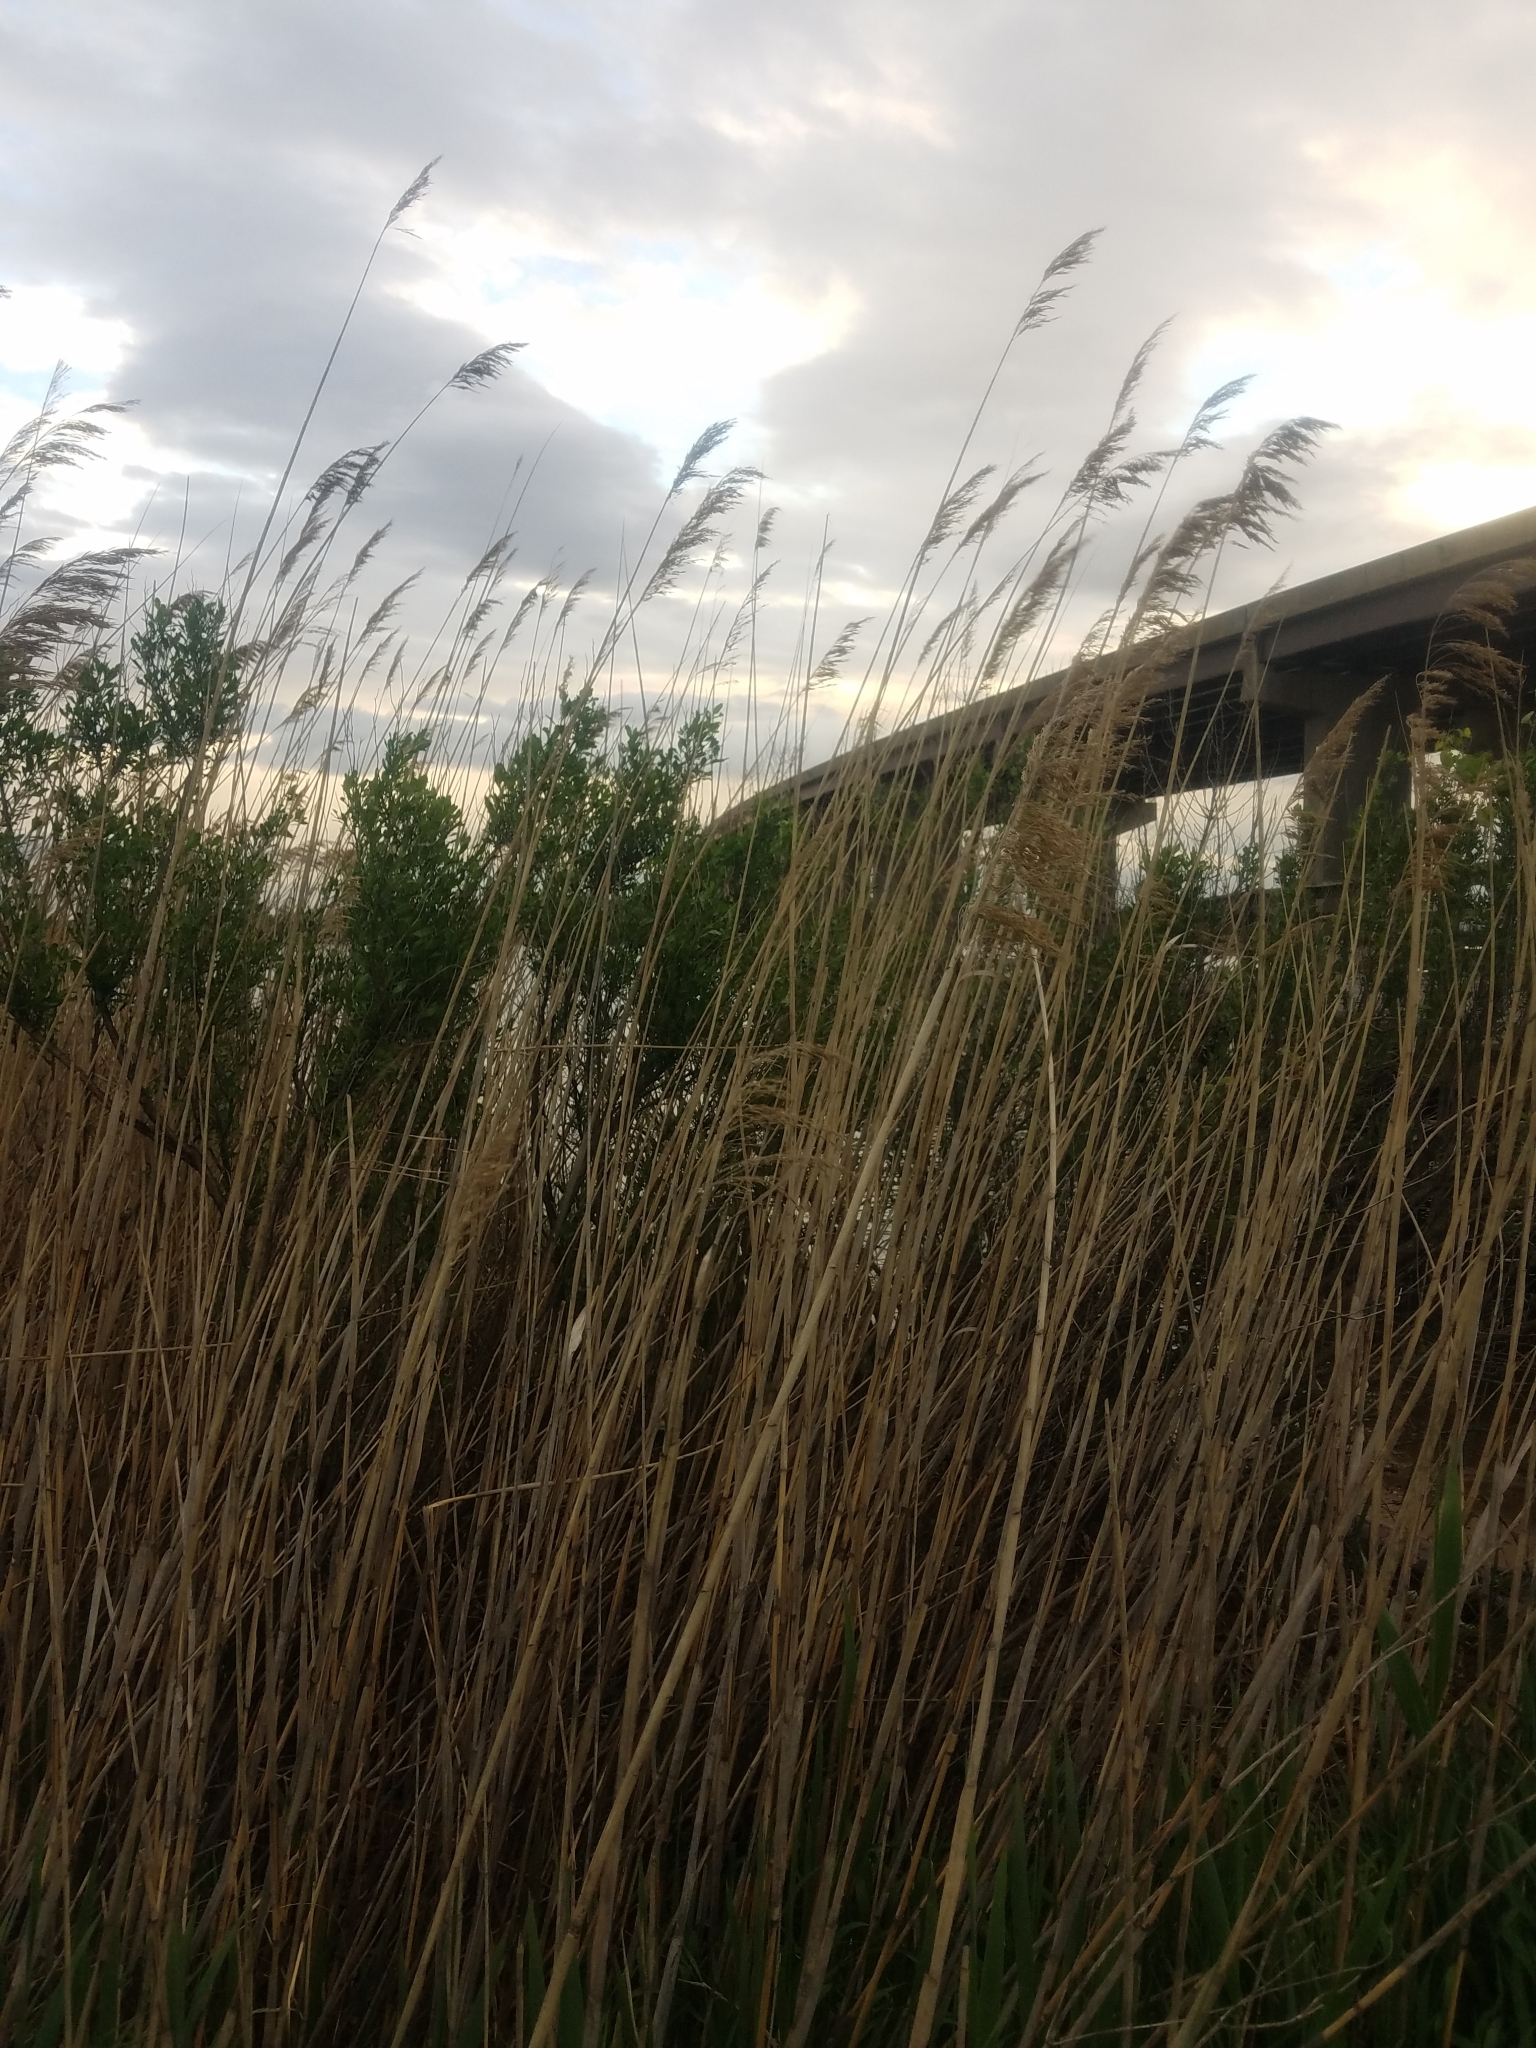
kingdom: Plantae
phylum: Tracheophyta
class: Liliopsida
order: Poales
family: Poaceae
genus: Phragmites
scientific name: Phragmites australis
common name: Common reed
